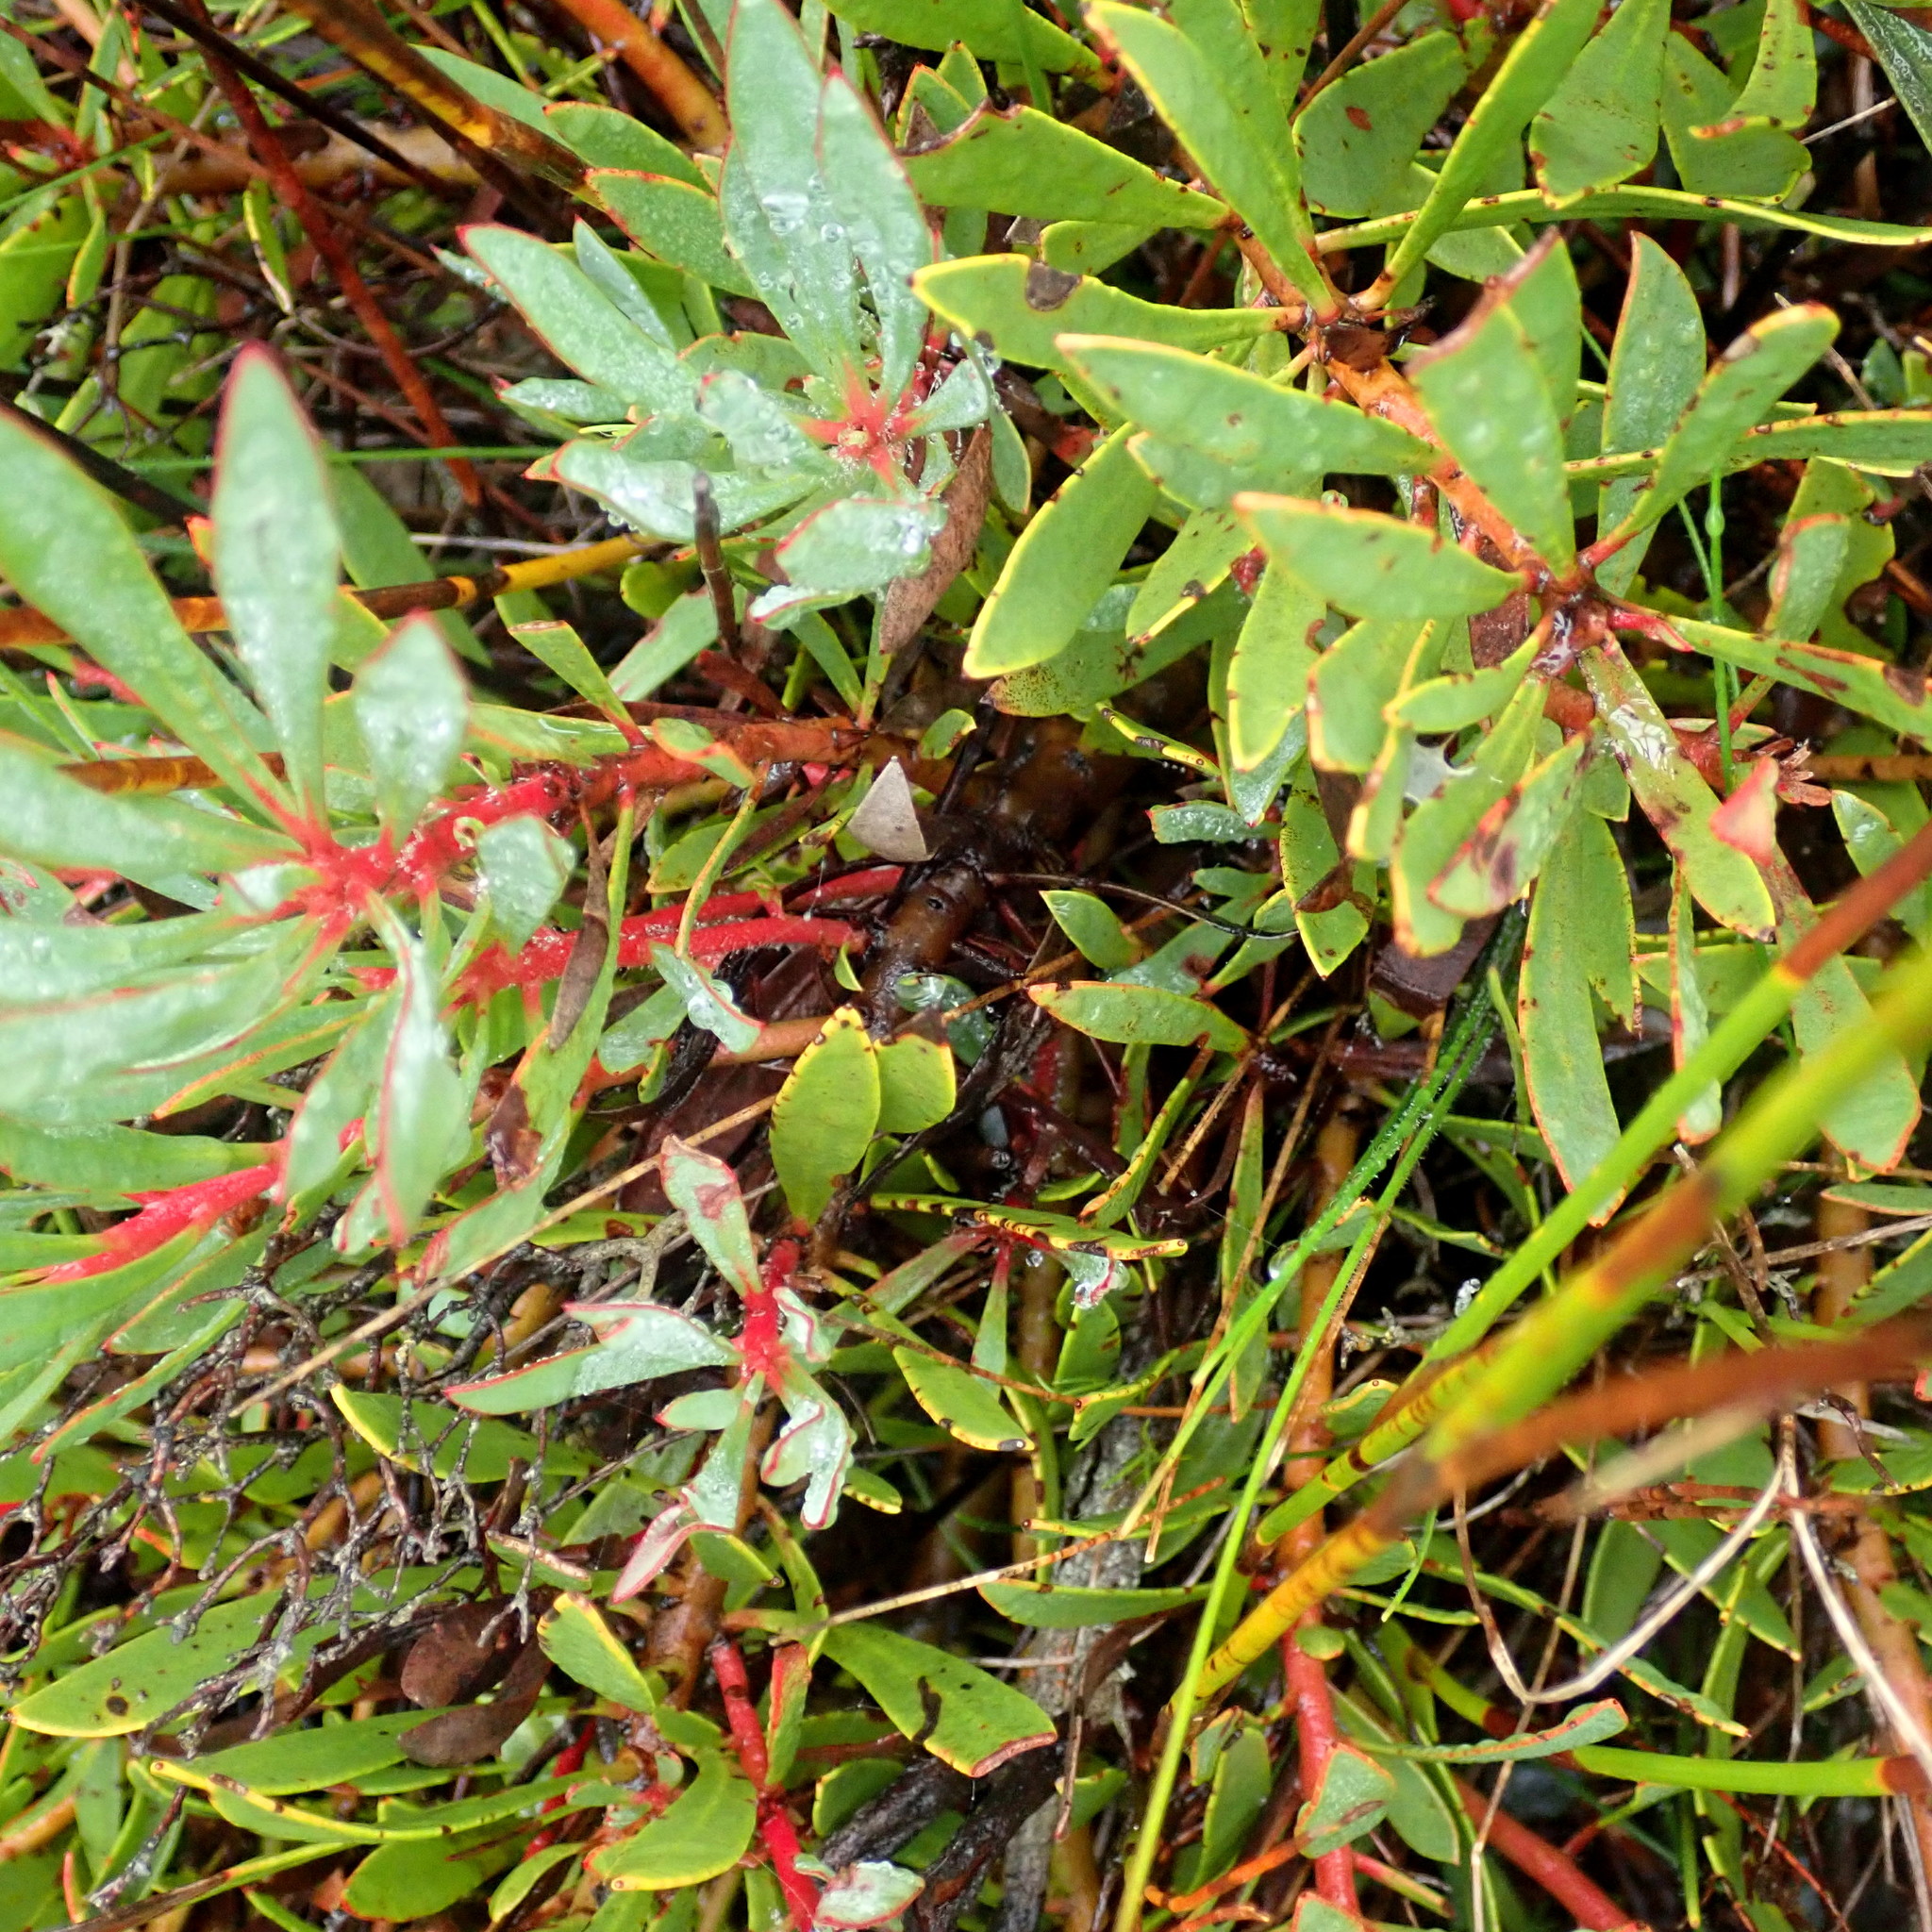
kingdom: Plantae
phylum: Tracheophyta
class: Magnoliopsida
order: Proteales
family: Proteaceae
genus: Protea
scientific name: Protea venusta
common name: Cascade sugarbush
